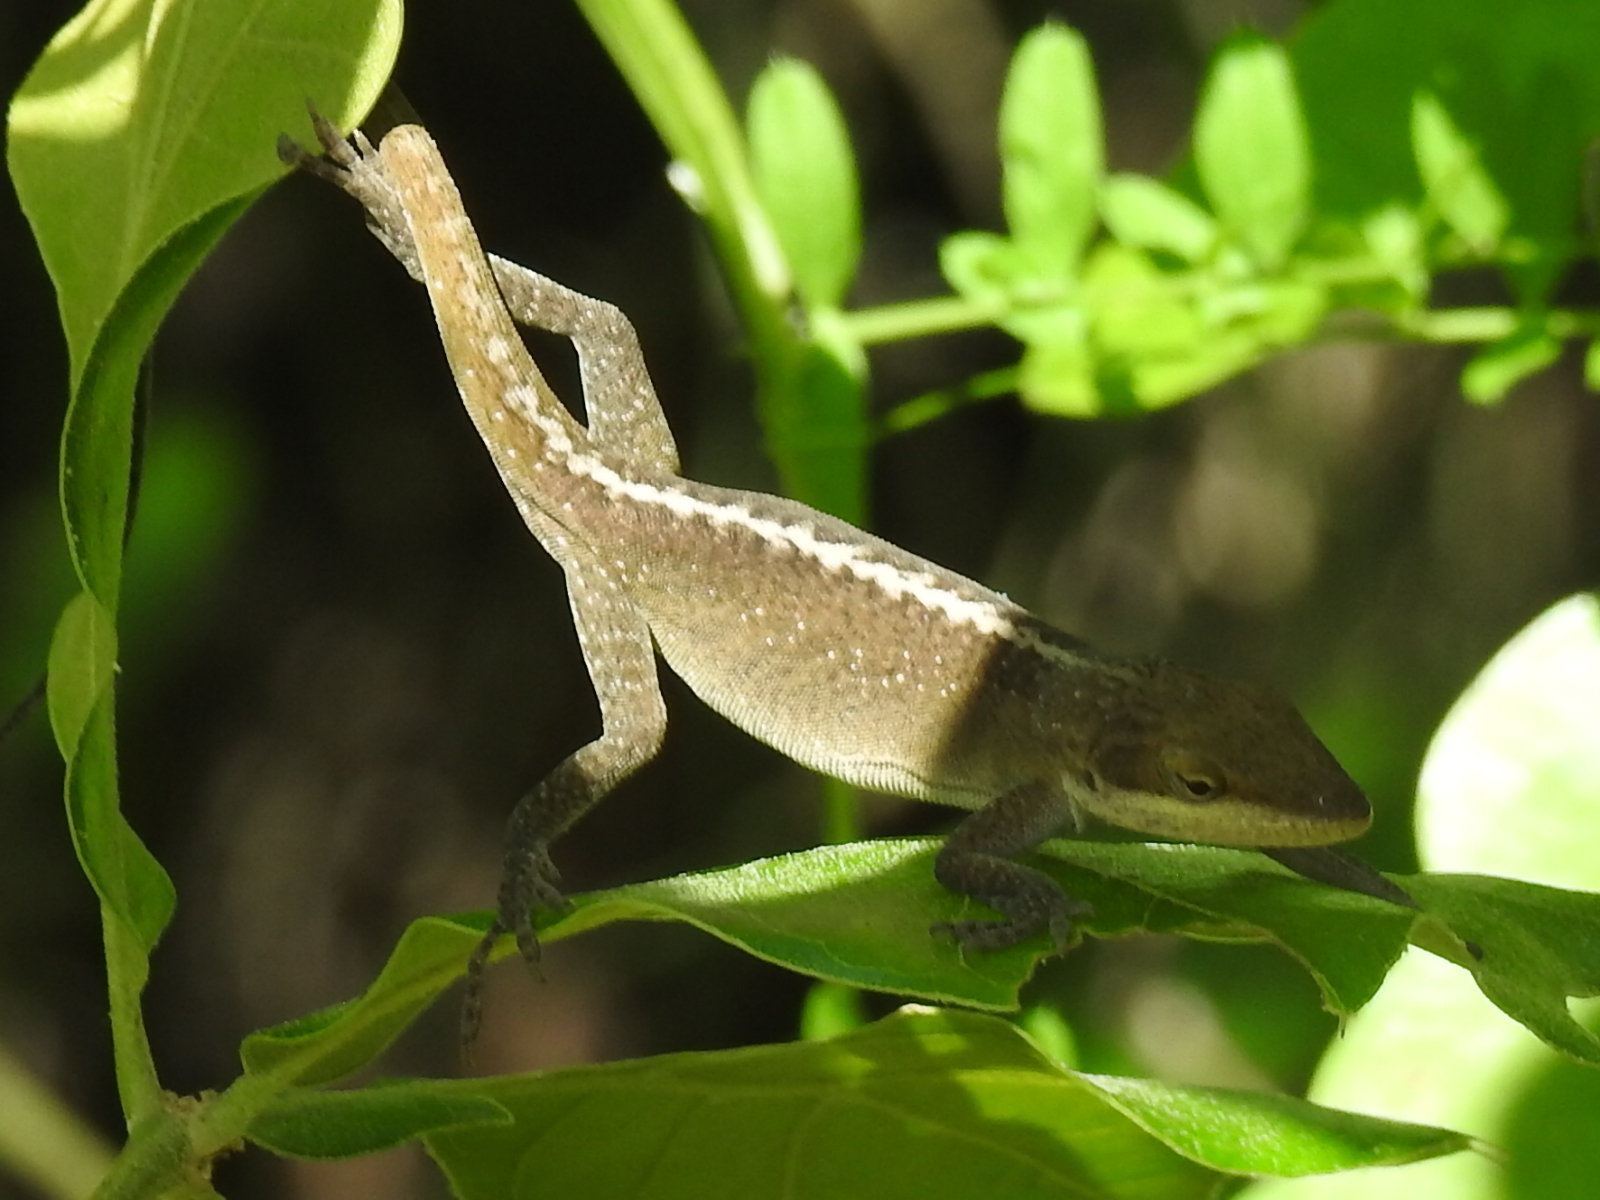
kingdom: Animalia
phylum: Chordata
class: Squamata
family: Dactyloidae
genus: Anolis
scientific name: Anolis carolinensis
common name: Green anole
